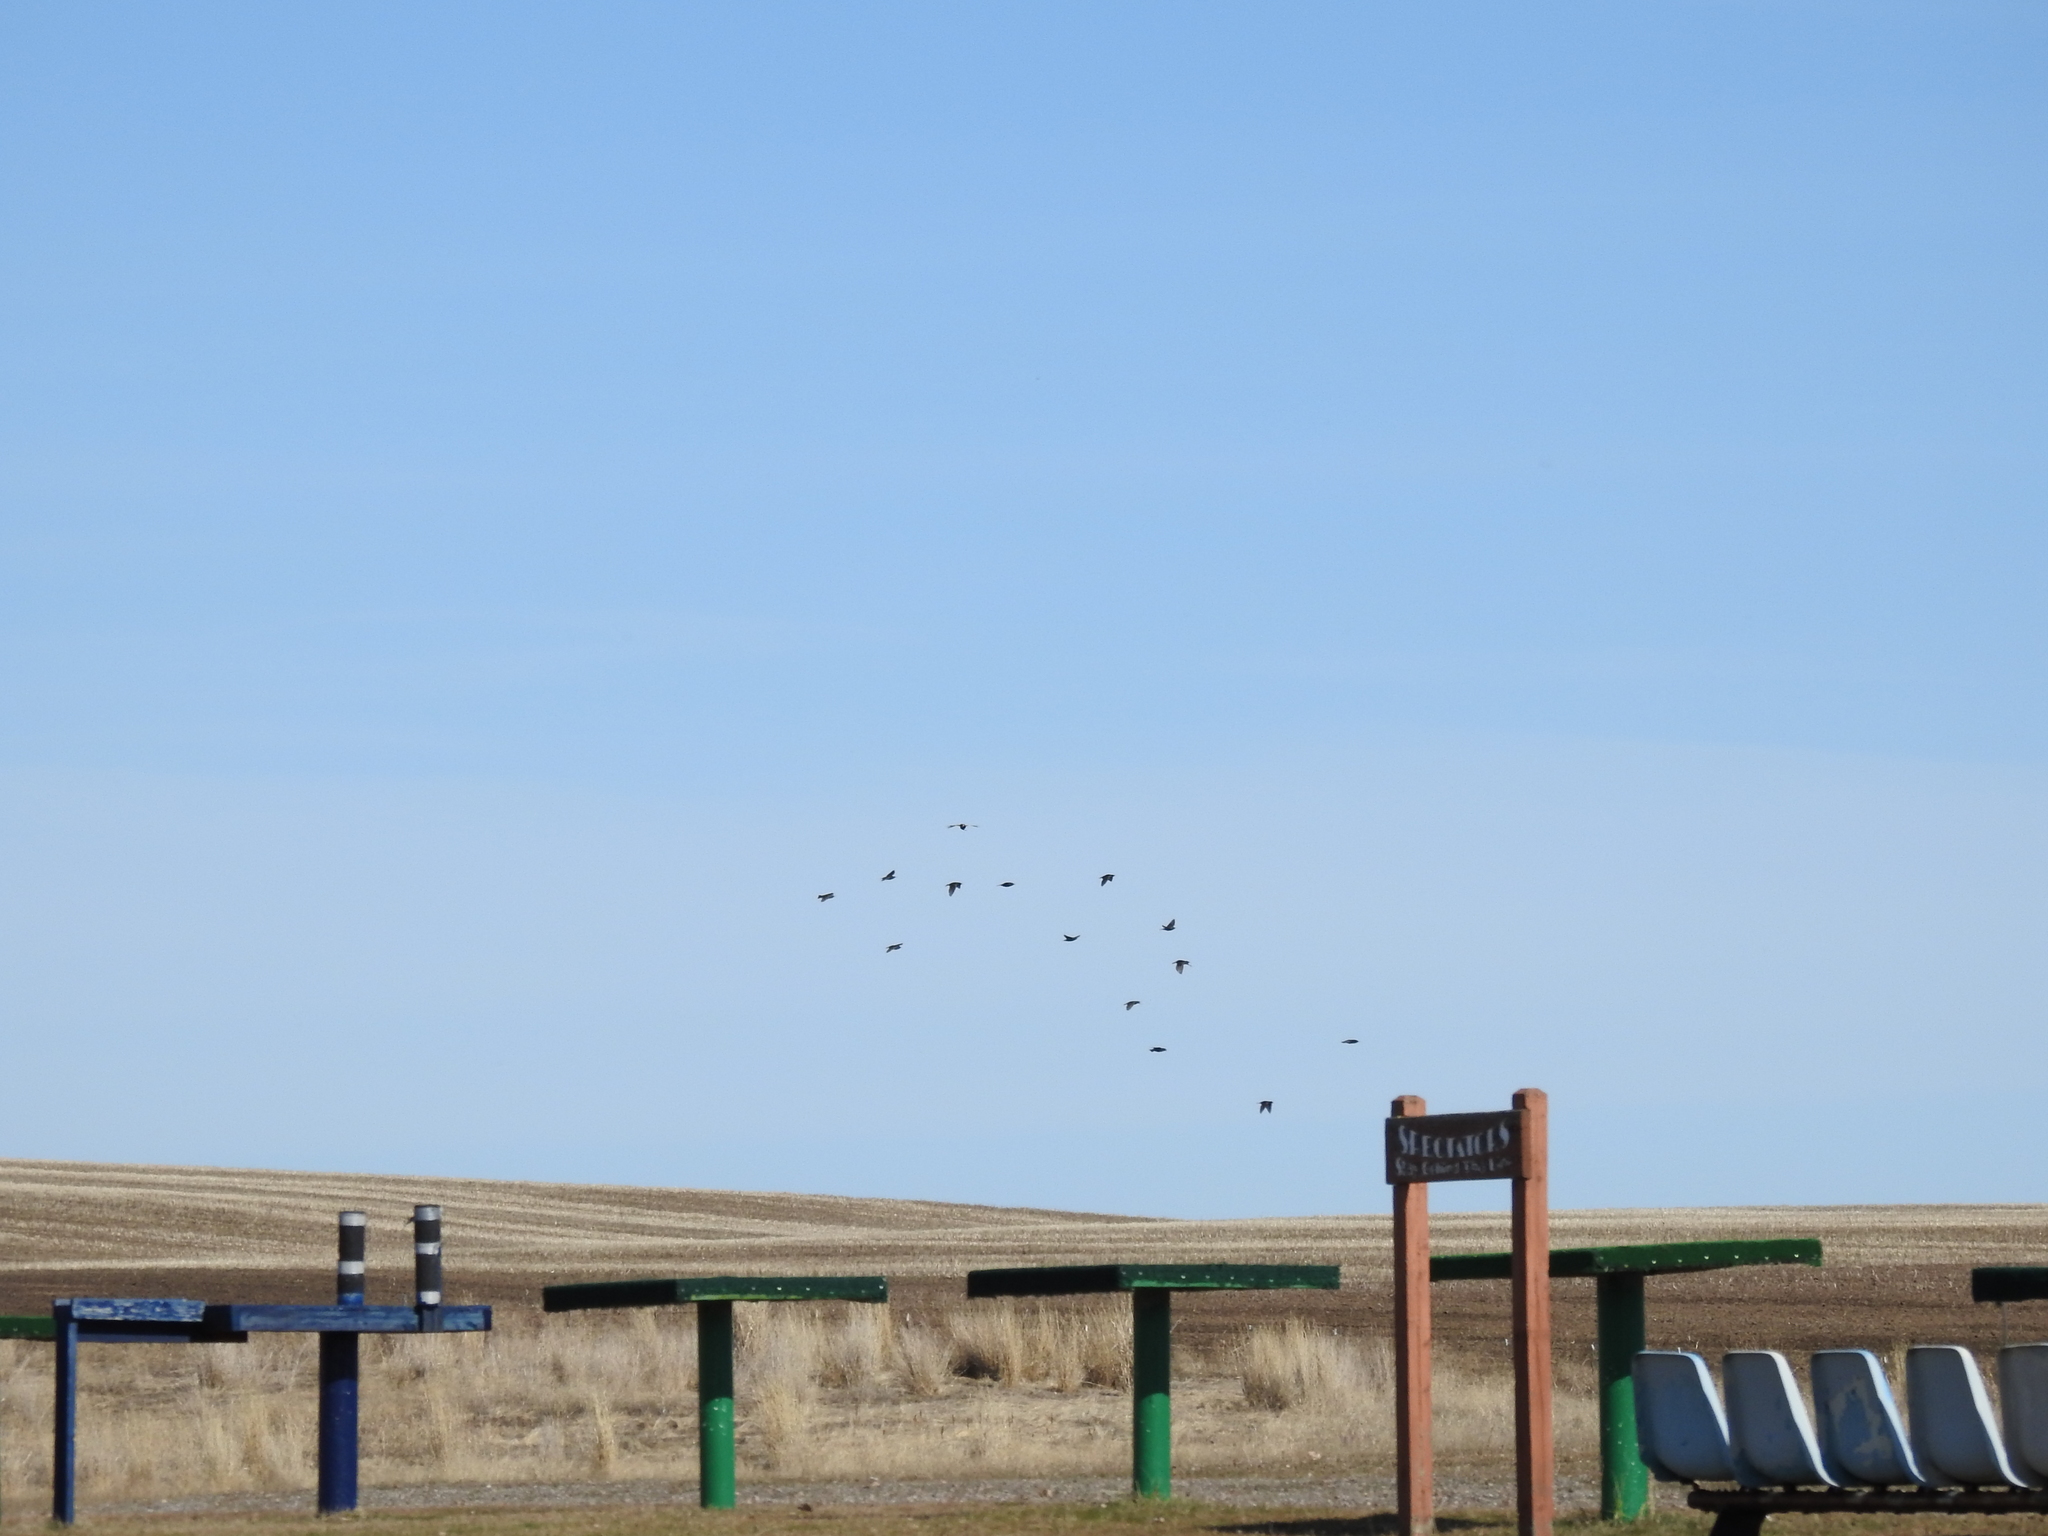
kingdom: Animalia
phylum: Chordata
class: Aves
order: Passeriformes
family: Sturnidae
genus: Sturnus
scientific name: Sturnus vulgaris
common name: Common starling
